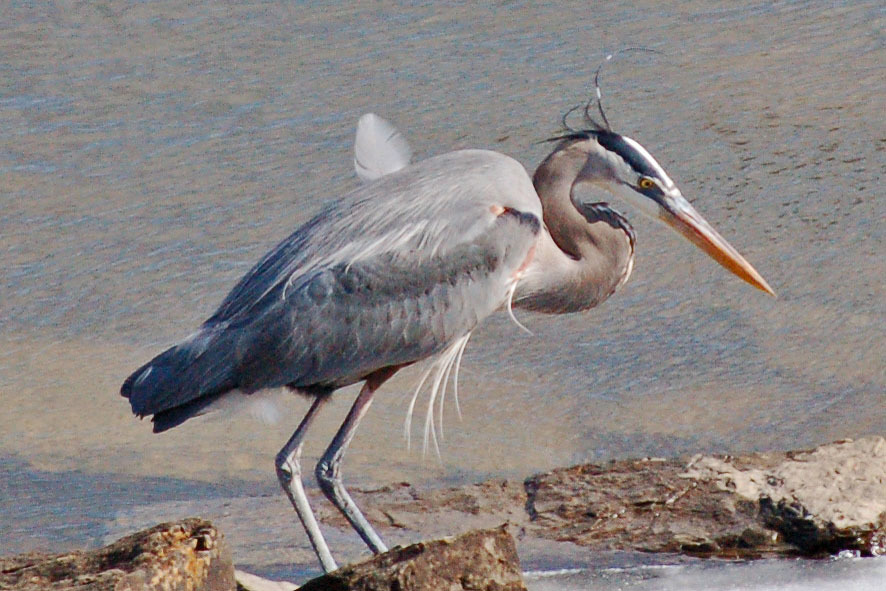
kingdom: Animalia
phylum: Chordata
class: Aves
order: Pelecaniformes
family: Ardeidae
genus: Ardea
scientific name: Ardea herodias
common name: Great blue heron
